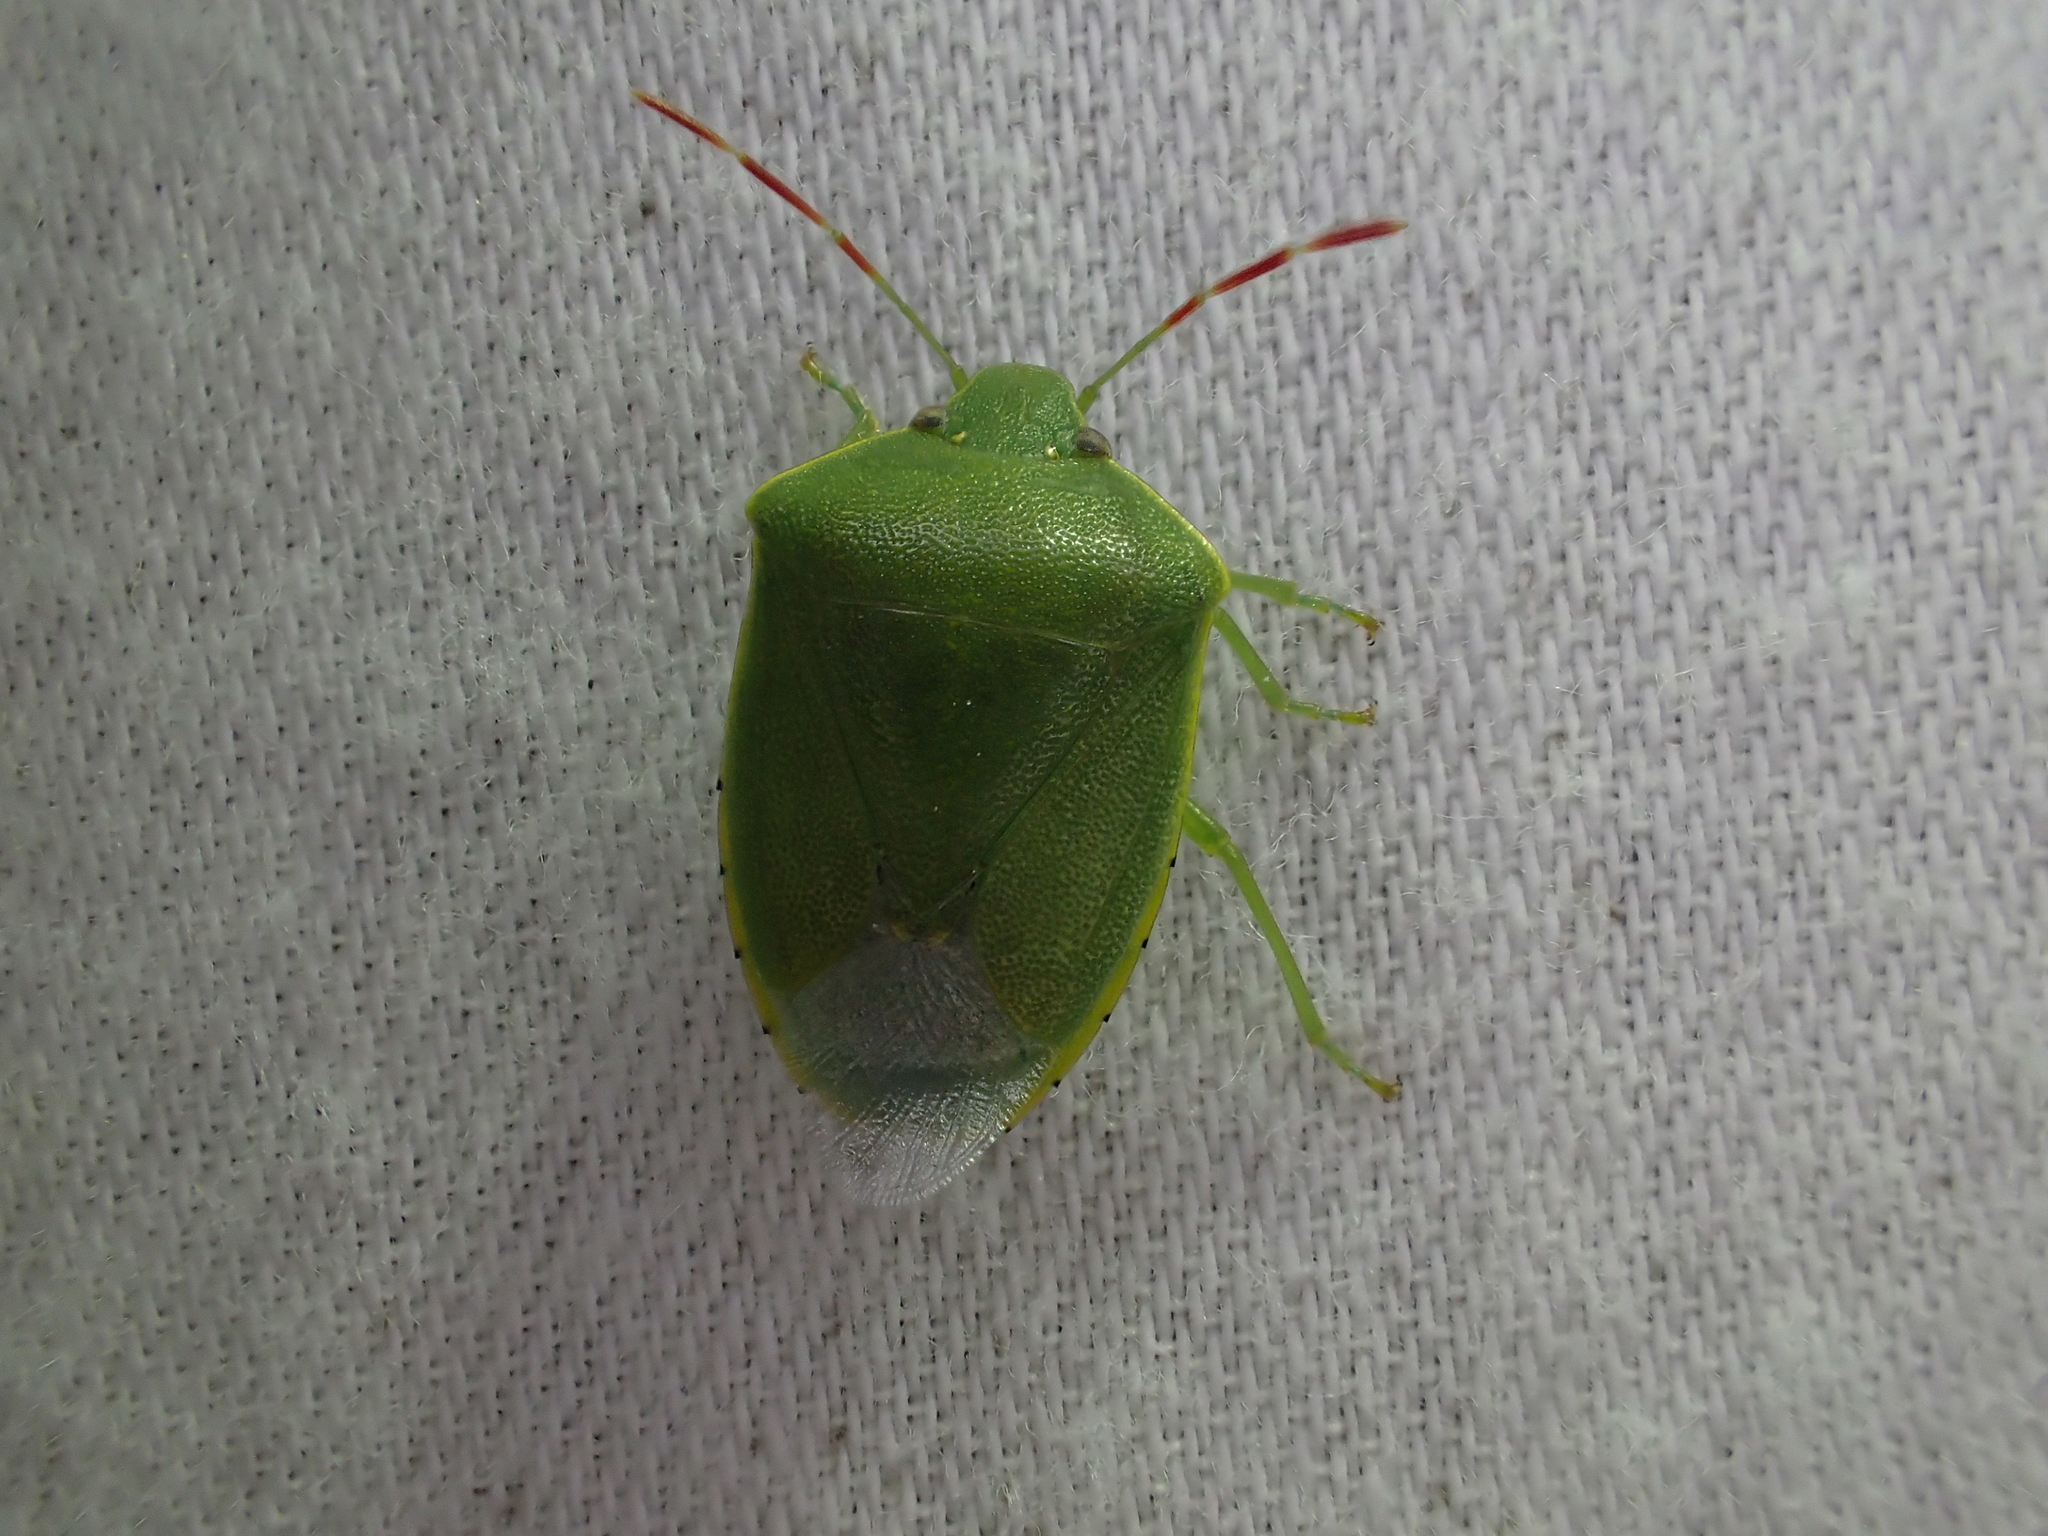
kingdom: Animalia
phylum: Arthropoda
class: Insecta
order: Hemiptera
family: Pentatomidae
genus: Acrosternum
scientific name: Acrosternum heegeri
